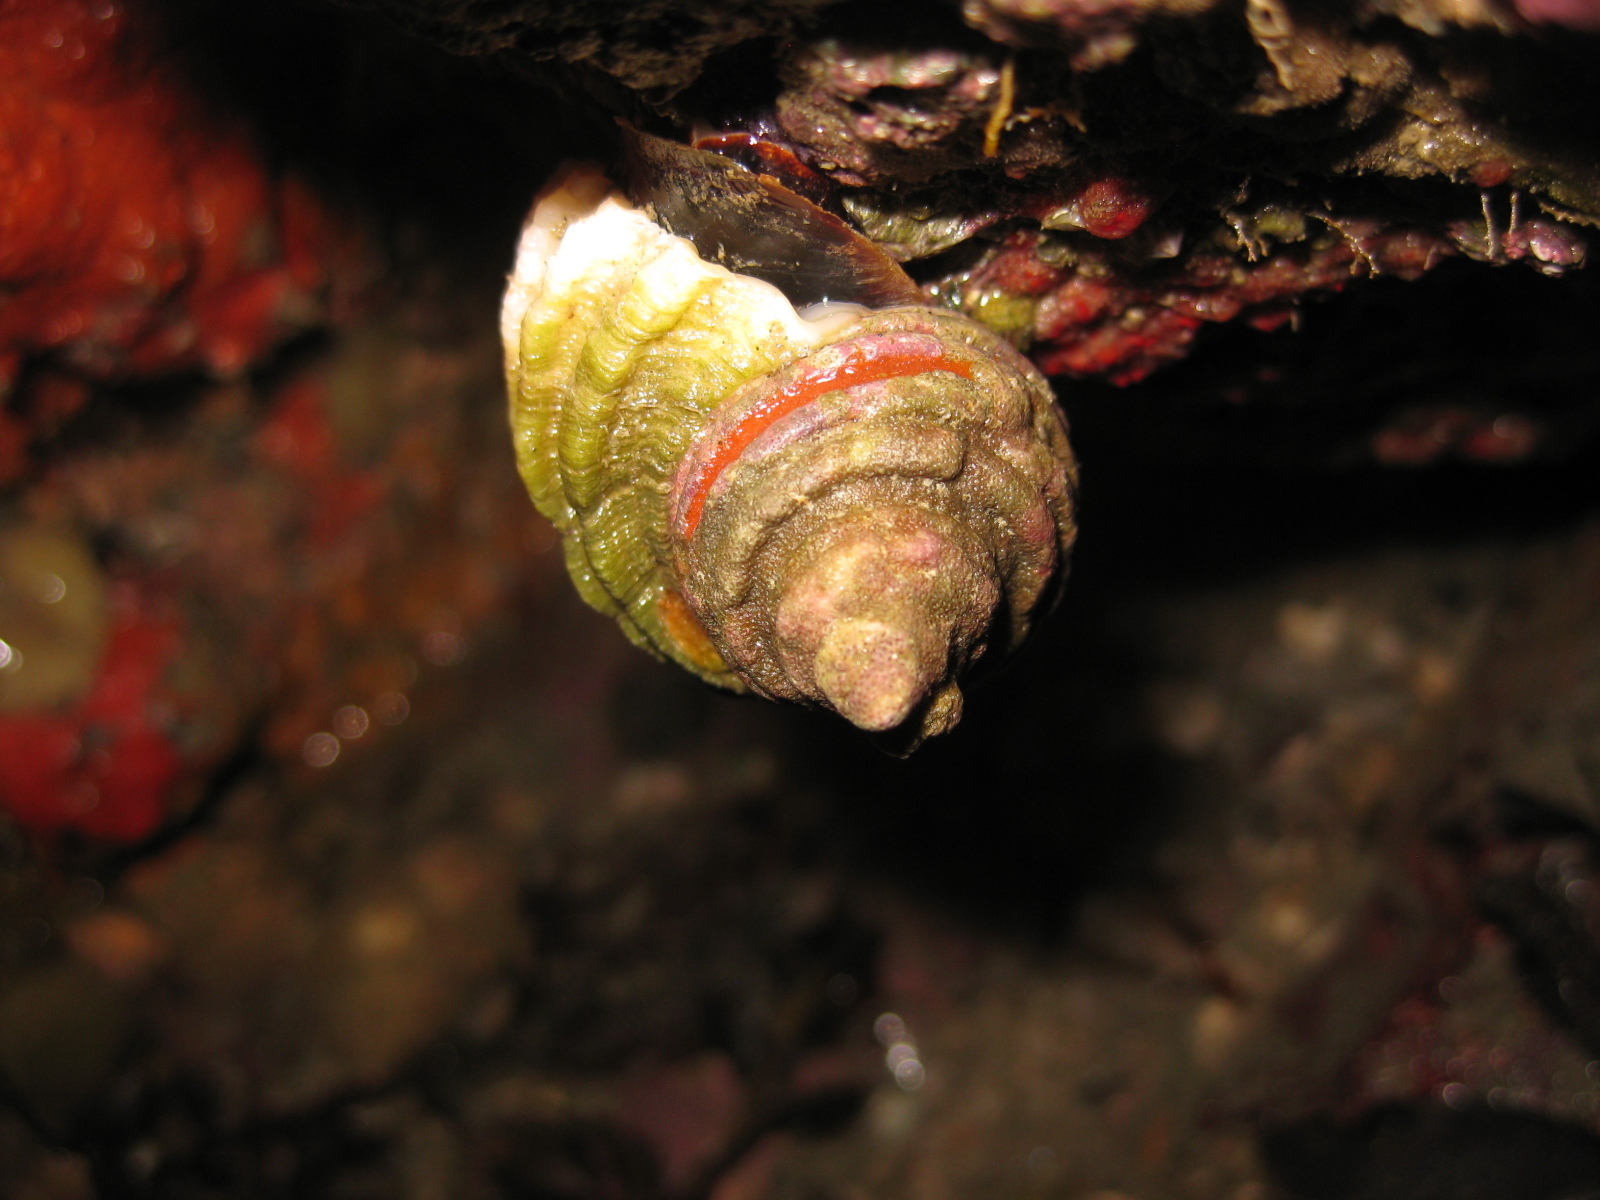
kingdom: Animalia
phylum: Mollusca
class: Gastropoda
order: Neogastropoda
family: Muricidae
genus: Dicathais
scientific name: Dicathais orbita
